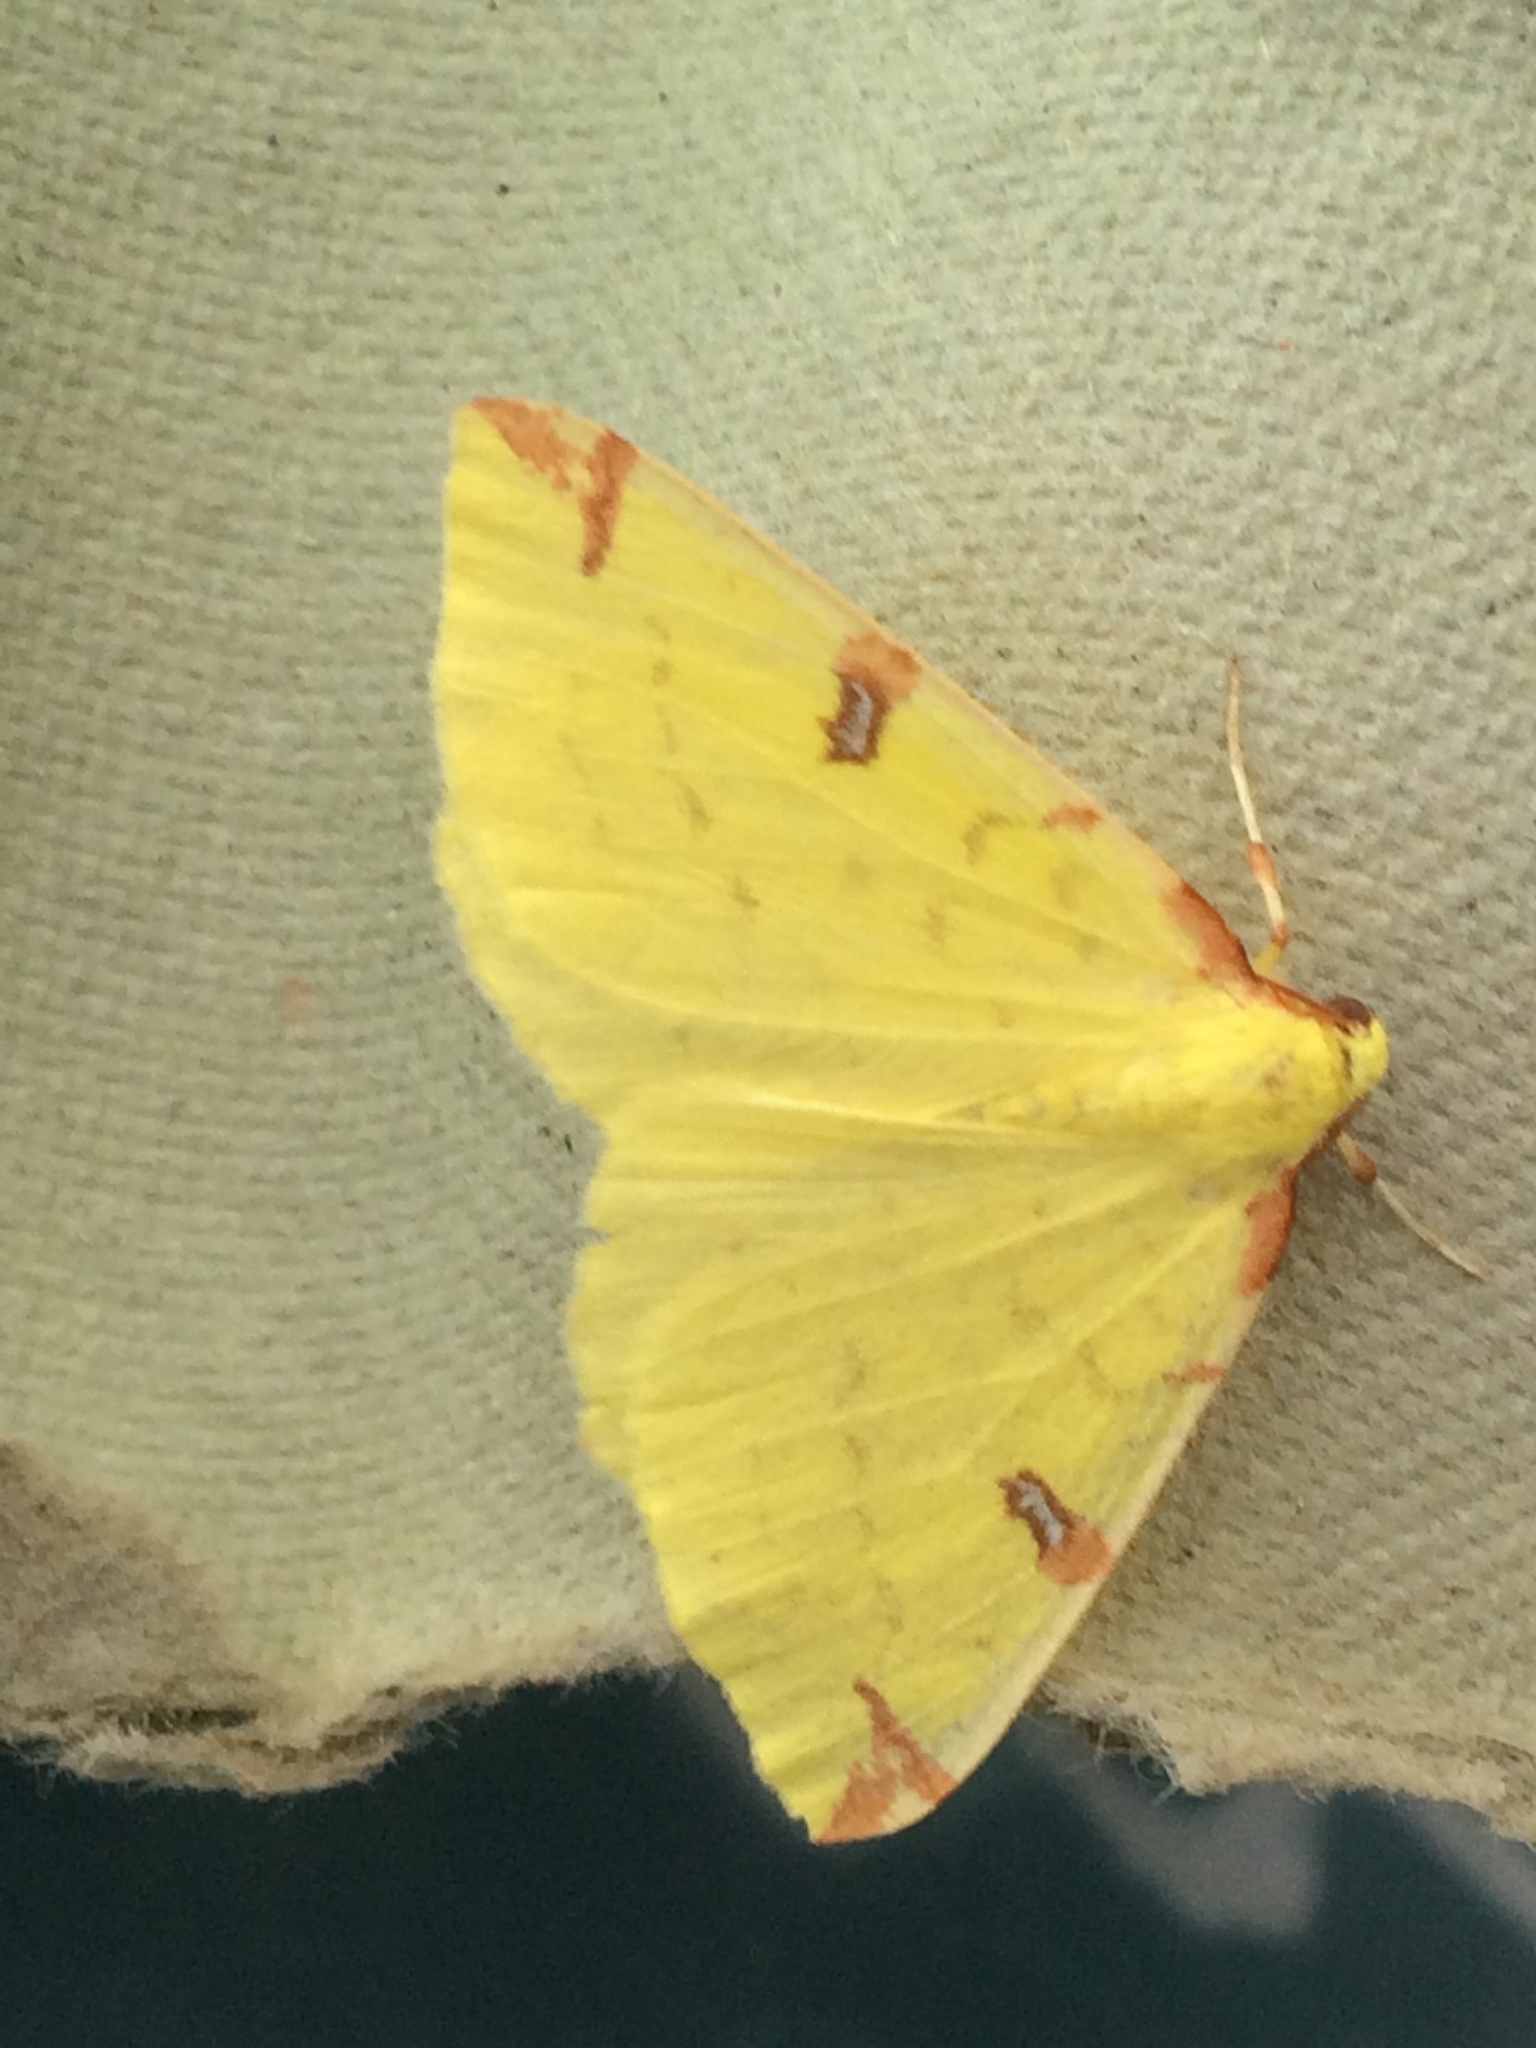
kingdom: Animalia
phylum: Arthropoda
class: Insecta
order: Lepidoptera
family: Geometridae
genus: Opisthograptis
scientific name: Opisthograptis luteolata
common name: Brimstone moth
